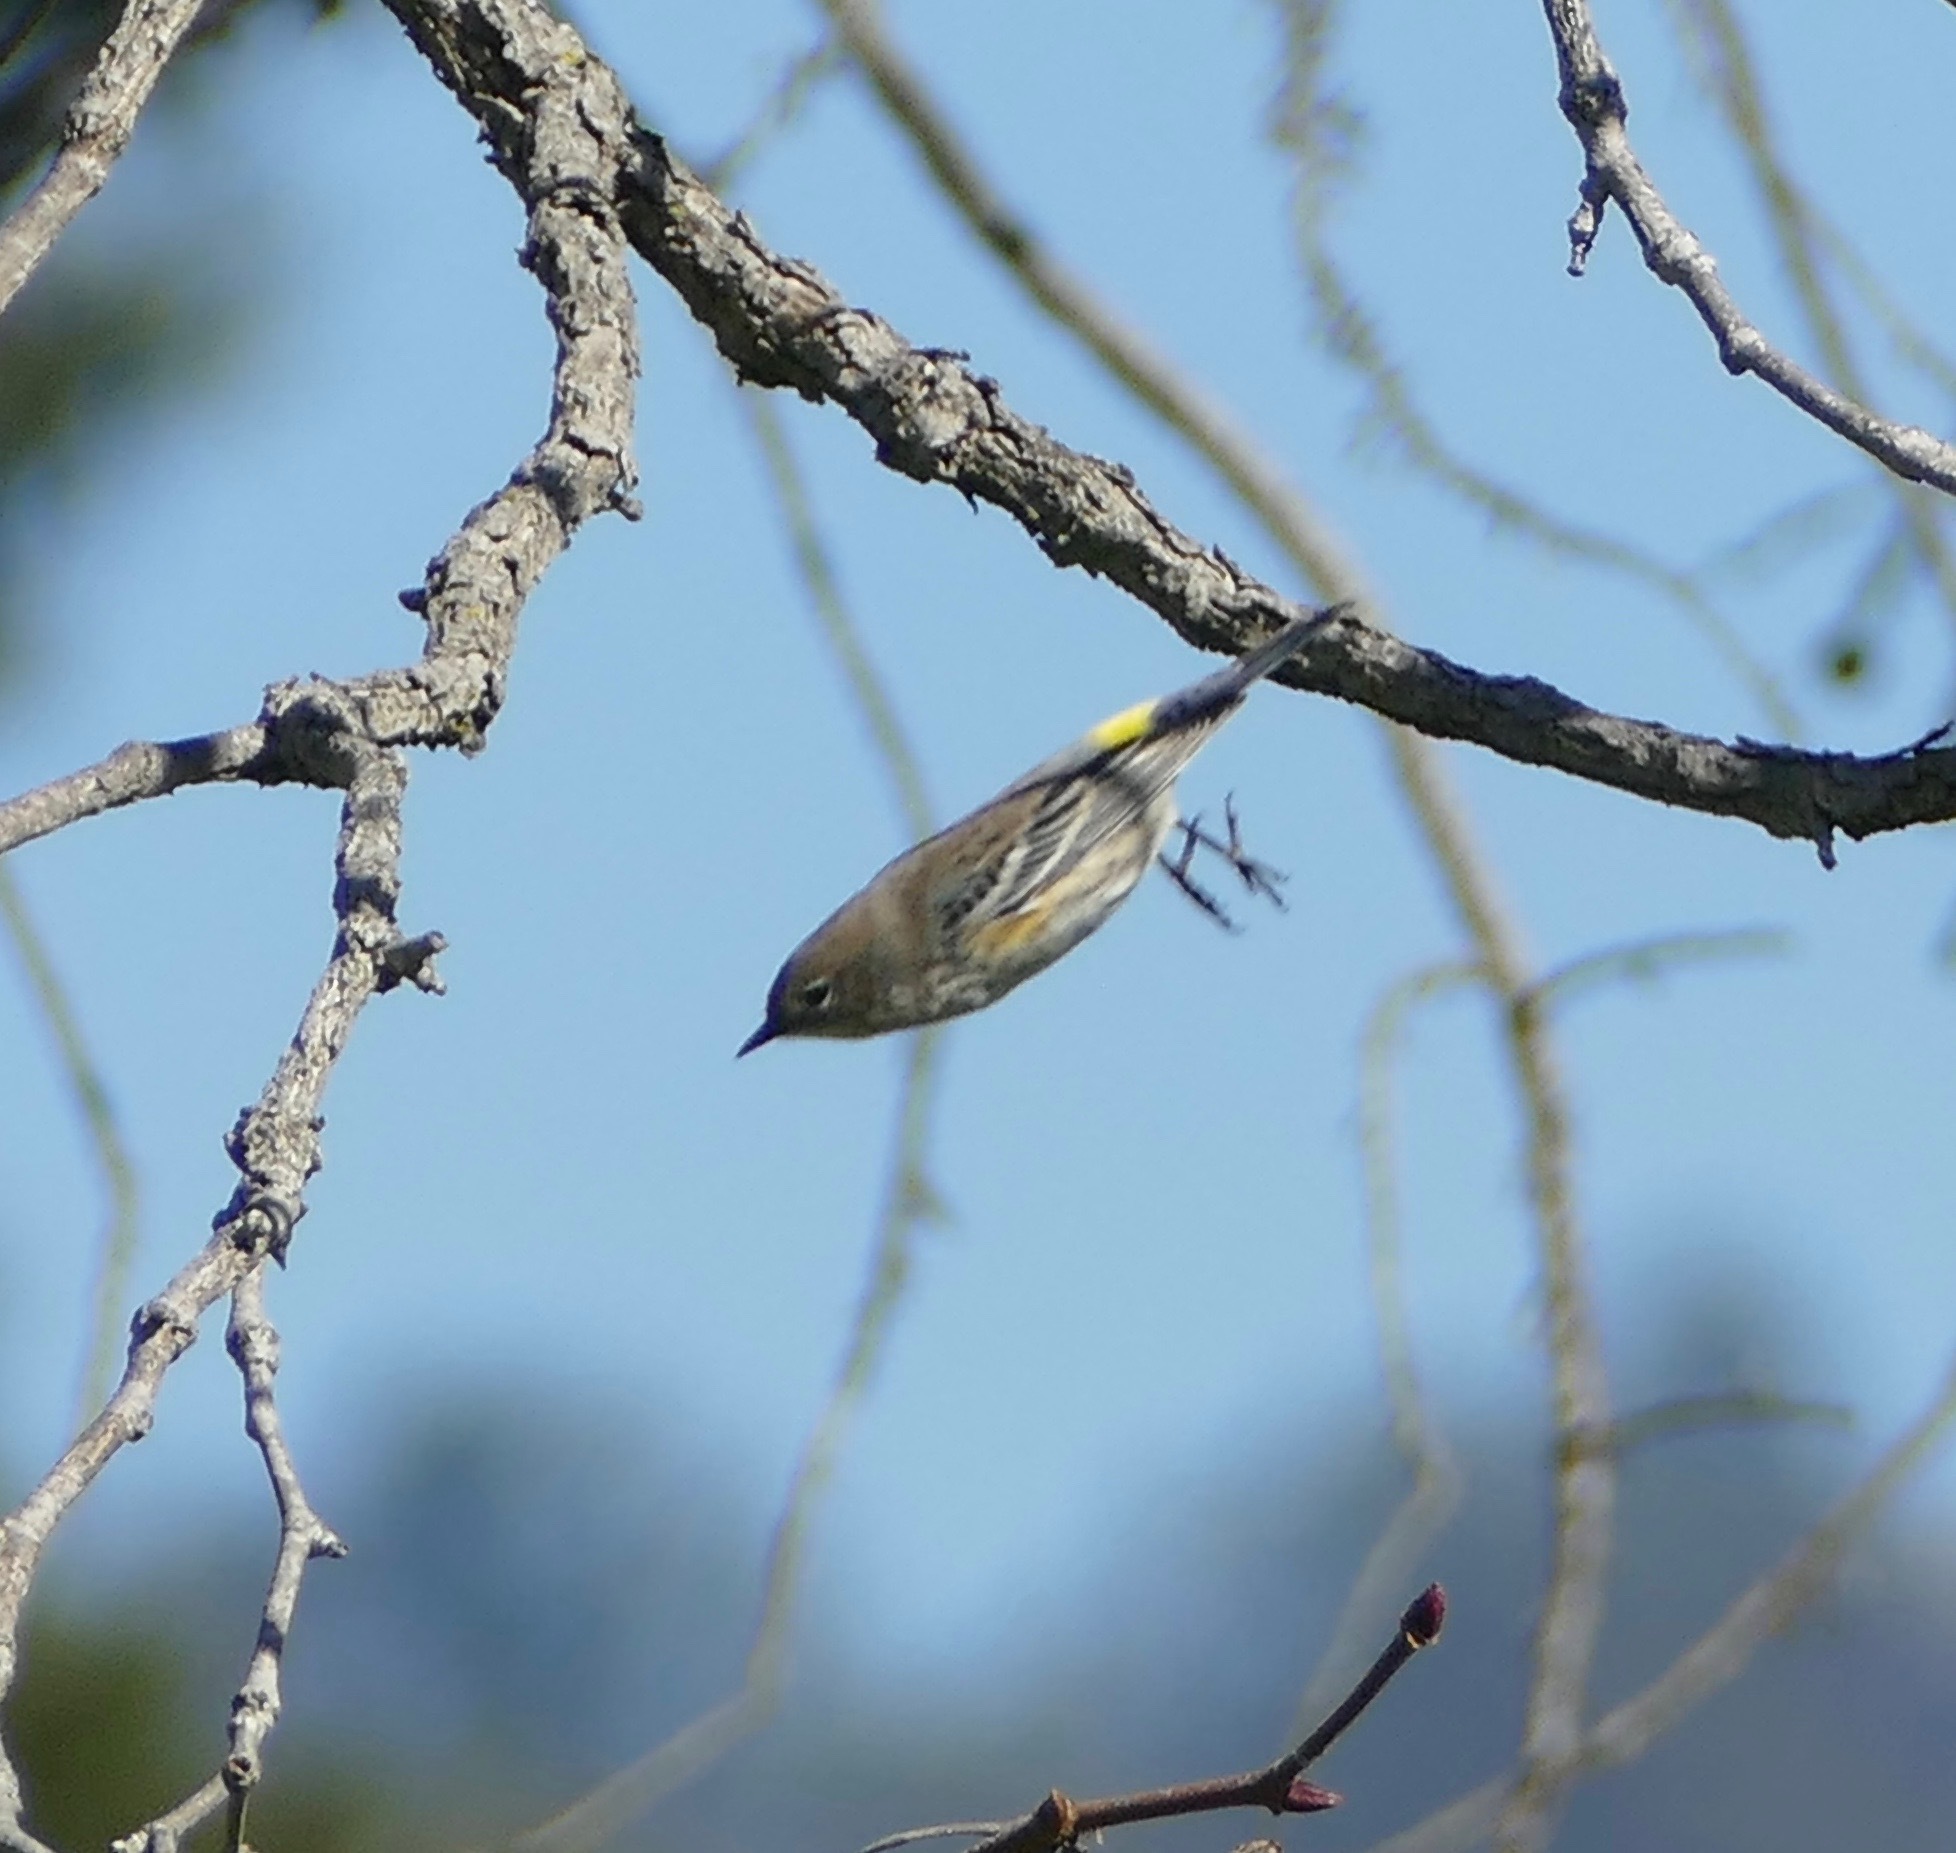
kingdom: Animalia
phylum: Chordata
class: Aves
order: Passeriformes
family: Parulidae
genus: Setophaga
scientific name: Setophaga coronata
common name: Myrtle warbler
